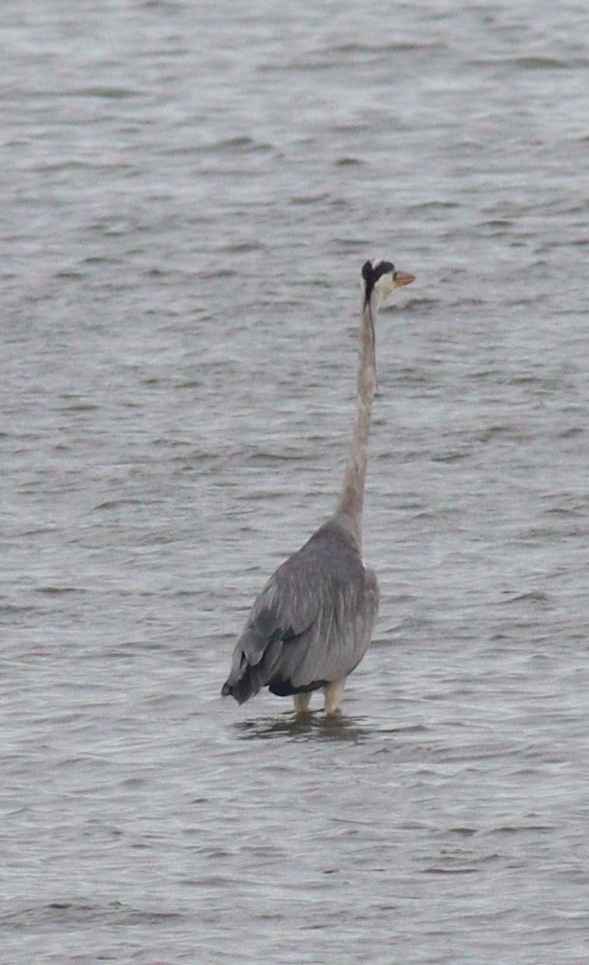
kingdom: Animalia
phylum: Chordata
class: Aves
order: Pelecaniformes
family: Ardeidae
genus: Ardea
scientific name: Ardea cinerea
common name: Grey heron
